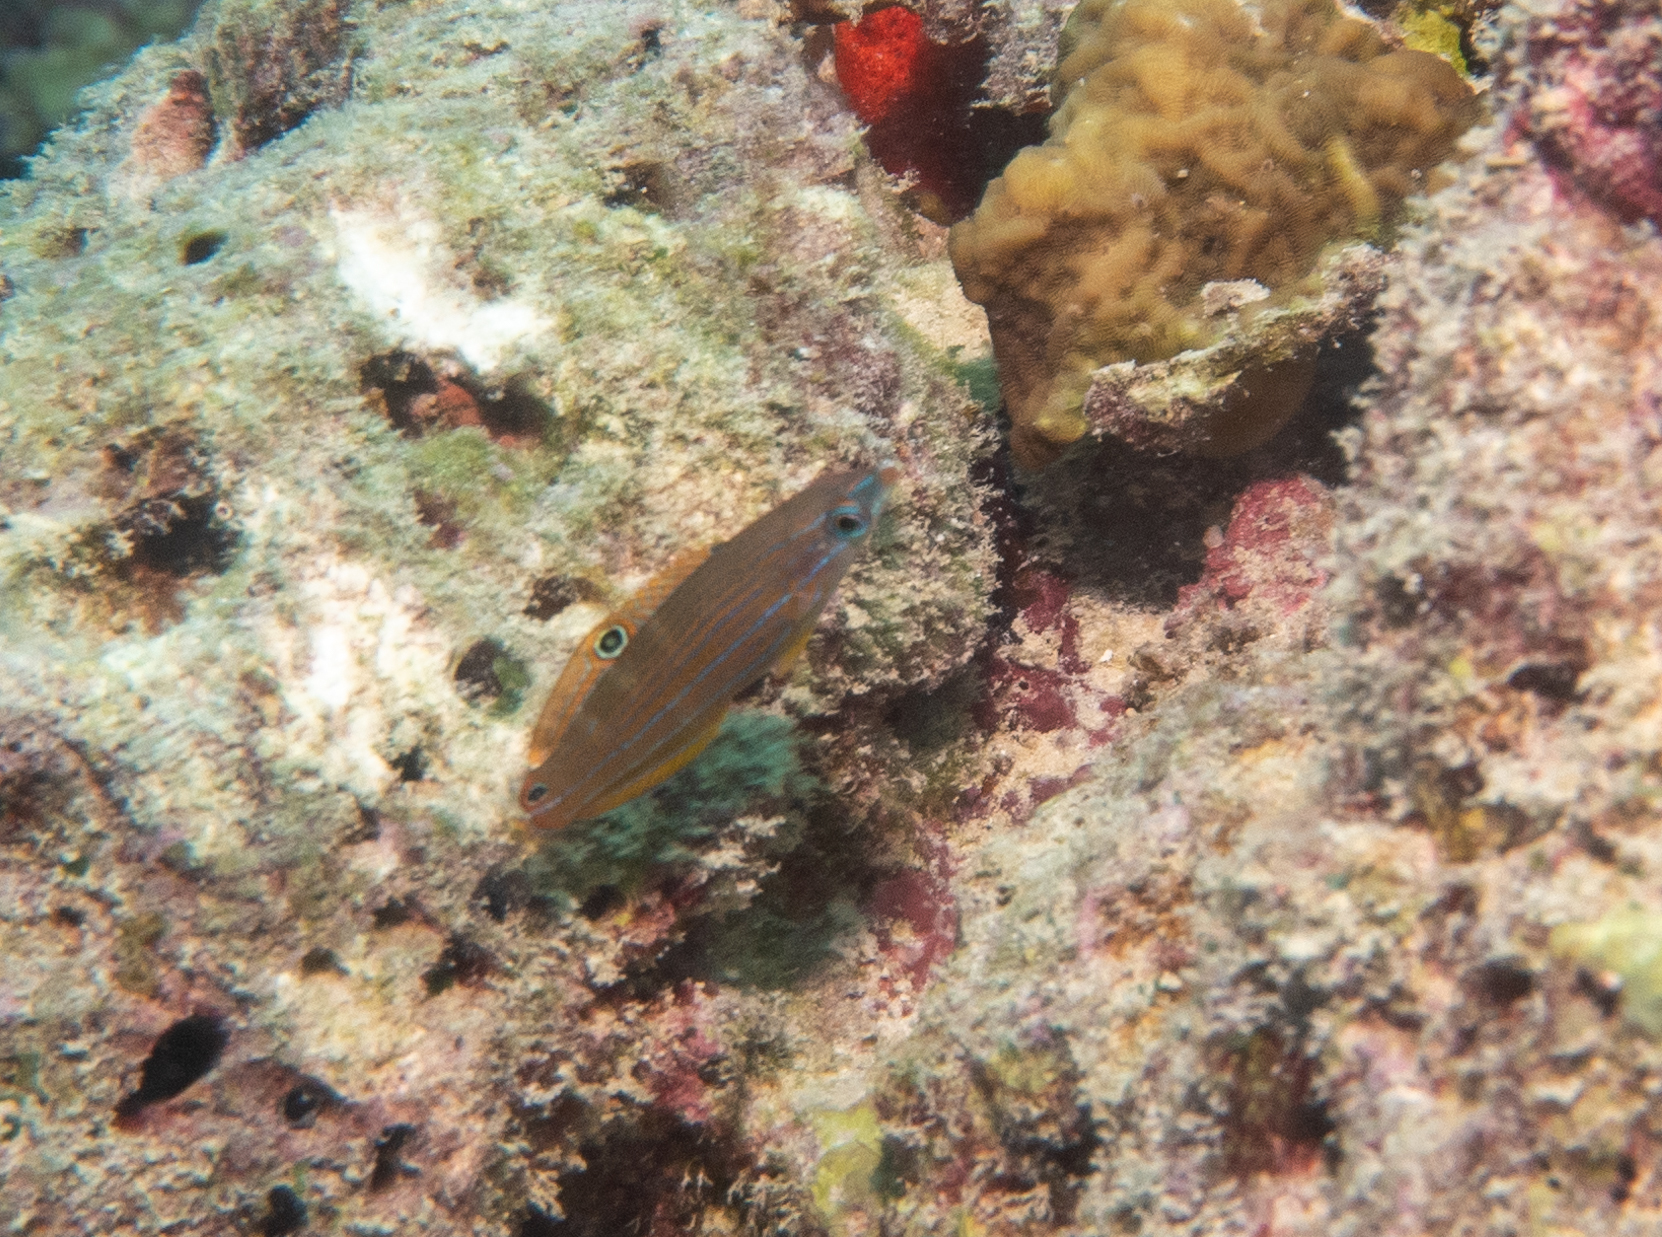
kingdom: Animalia
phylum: Chordata
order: Perciformes
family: Labridae
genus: Halichoeres
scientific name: Halichoeres melanurus
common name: Hoeven's wrasse
